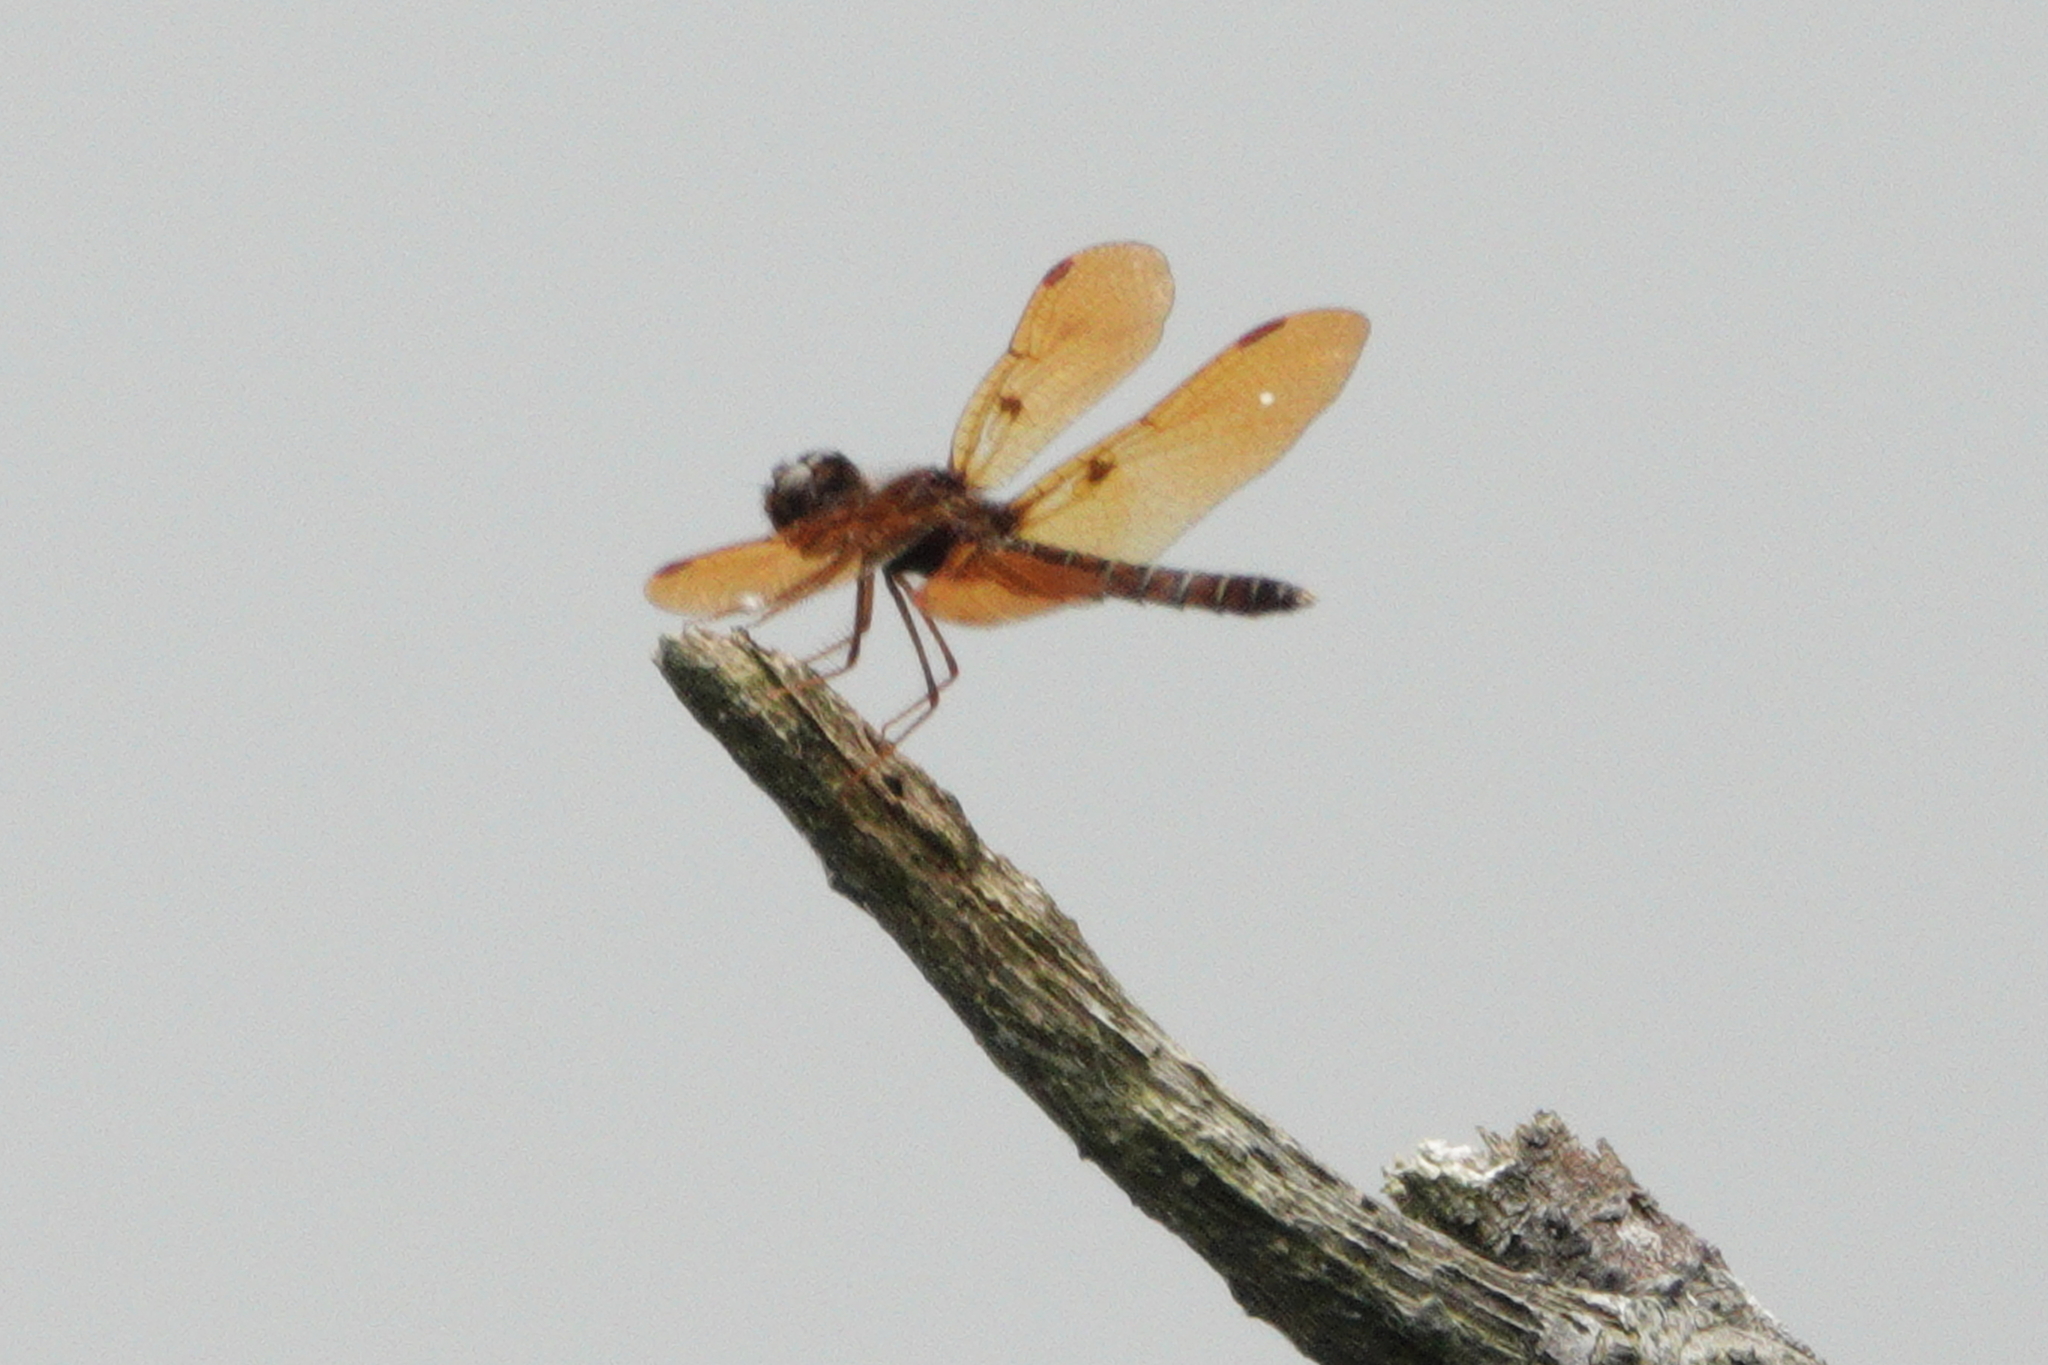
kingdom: Animalia
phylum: Arthropoda
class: Insecta
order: Odonata
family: Libellulidae
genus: Perithemis
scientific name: Perithemis tenera
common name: Eastern amberwing
